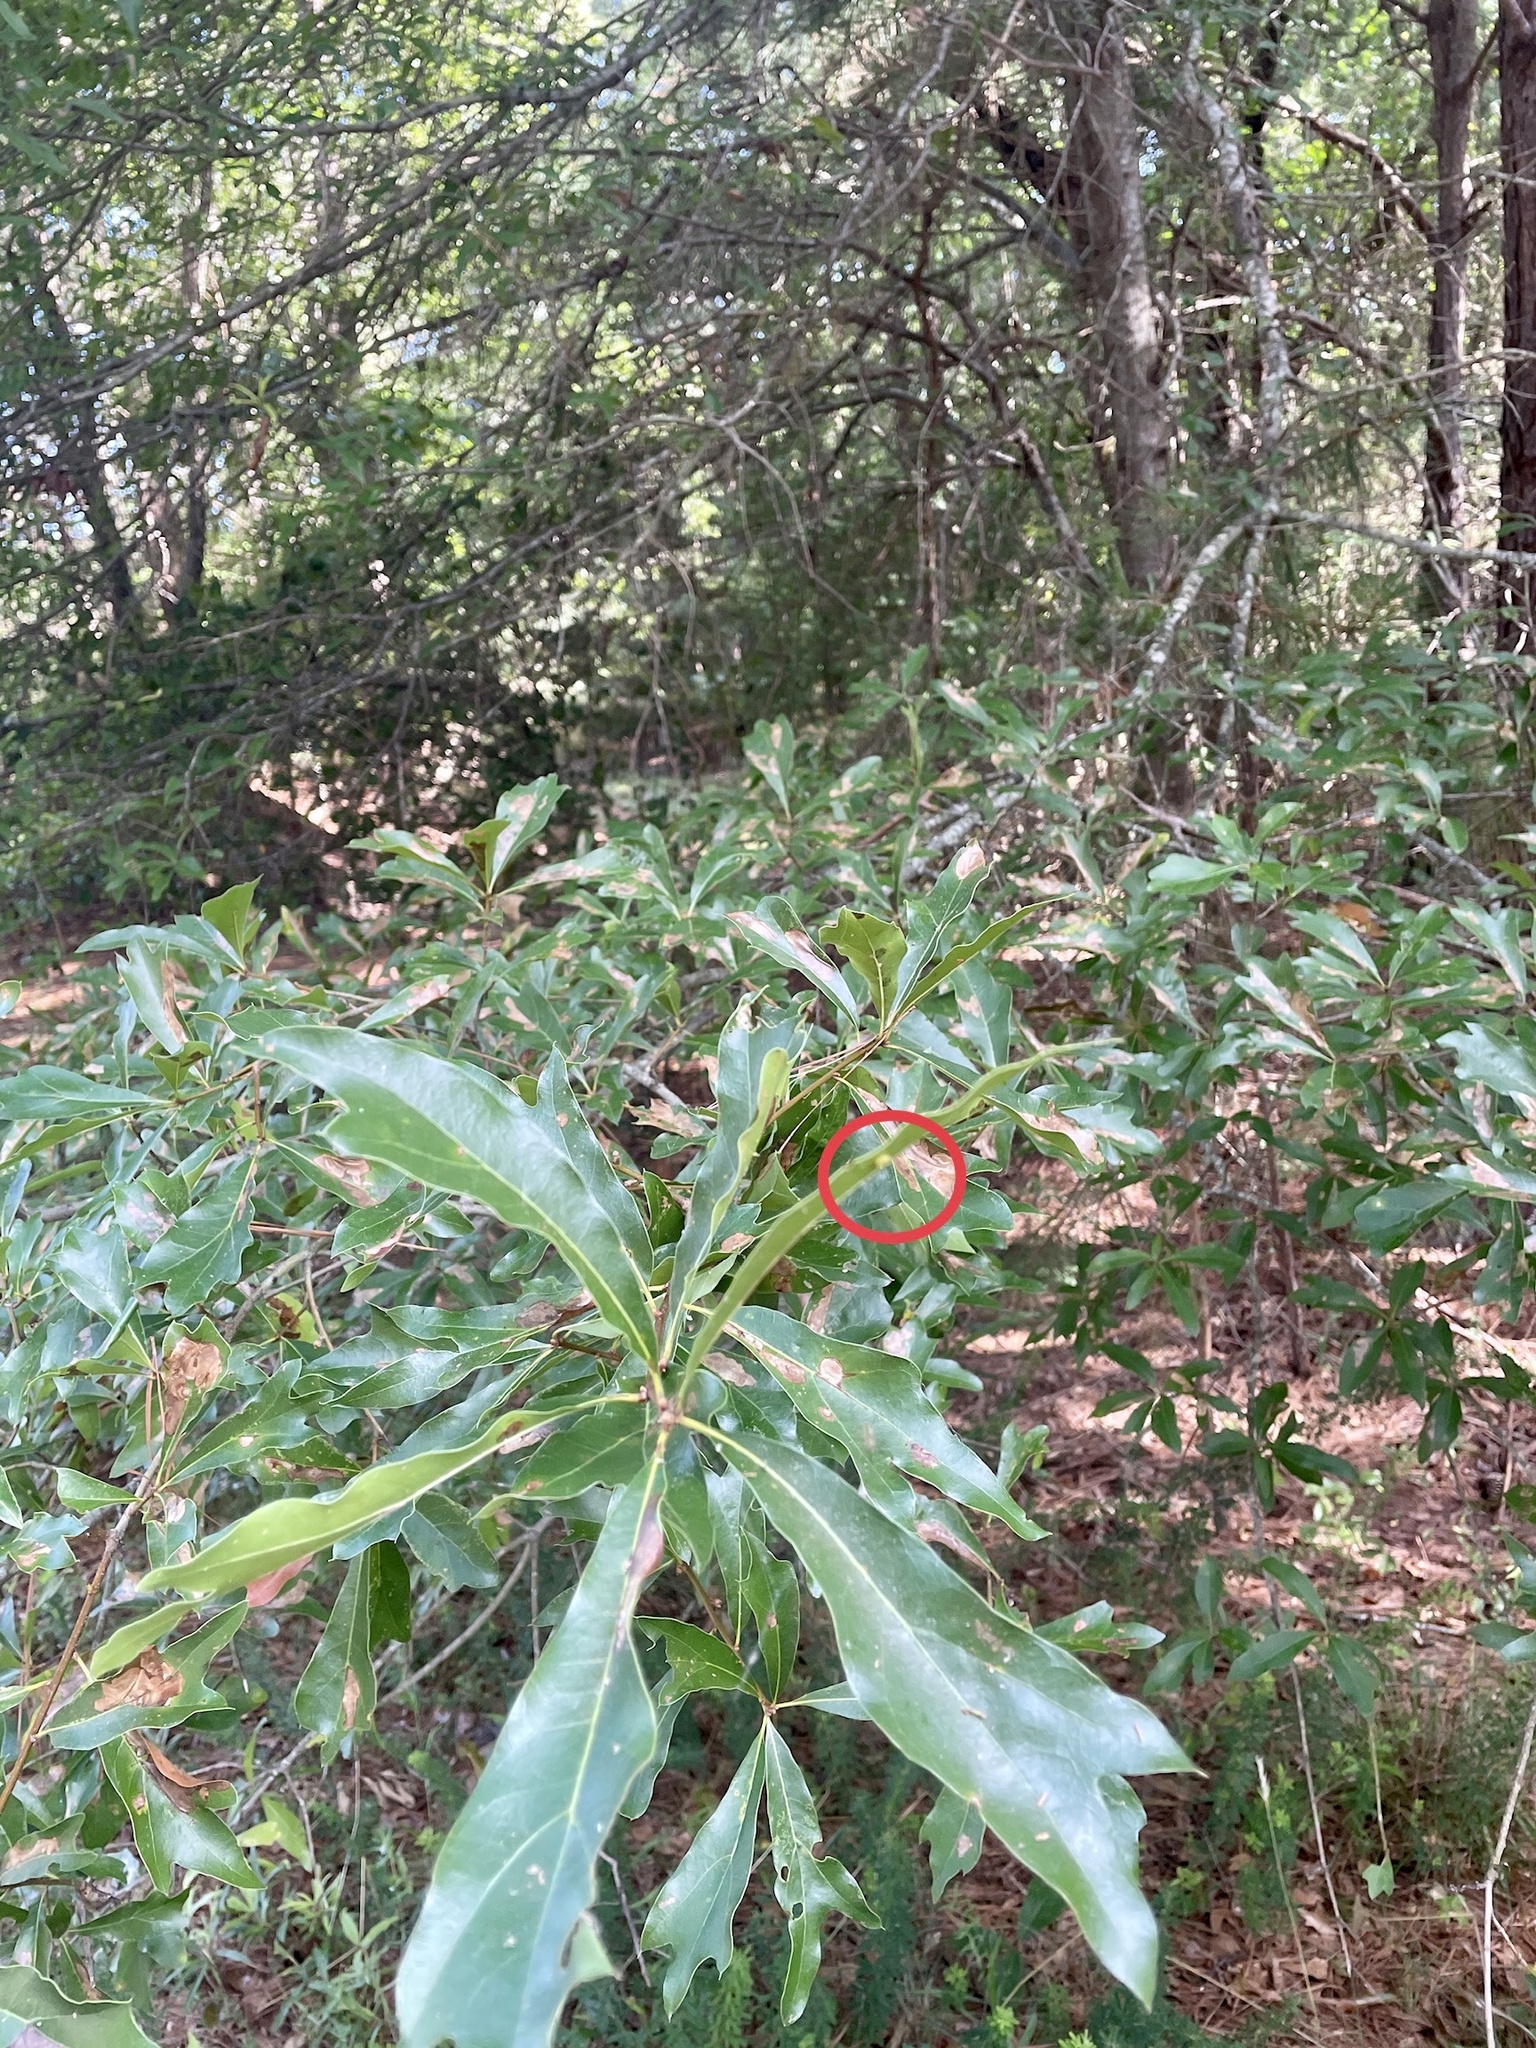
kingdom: Animalia
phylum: Arthropoda
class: Insecta
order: Hymenoptera
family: Cynipidae
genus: Dryocosmus
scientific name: Dryocosmus
